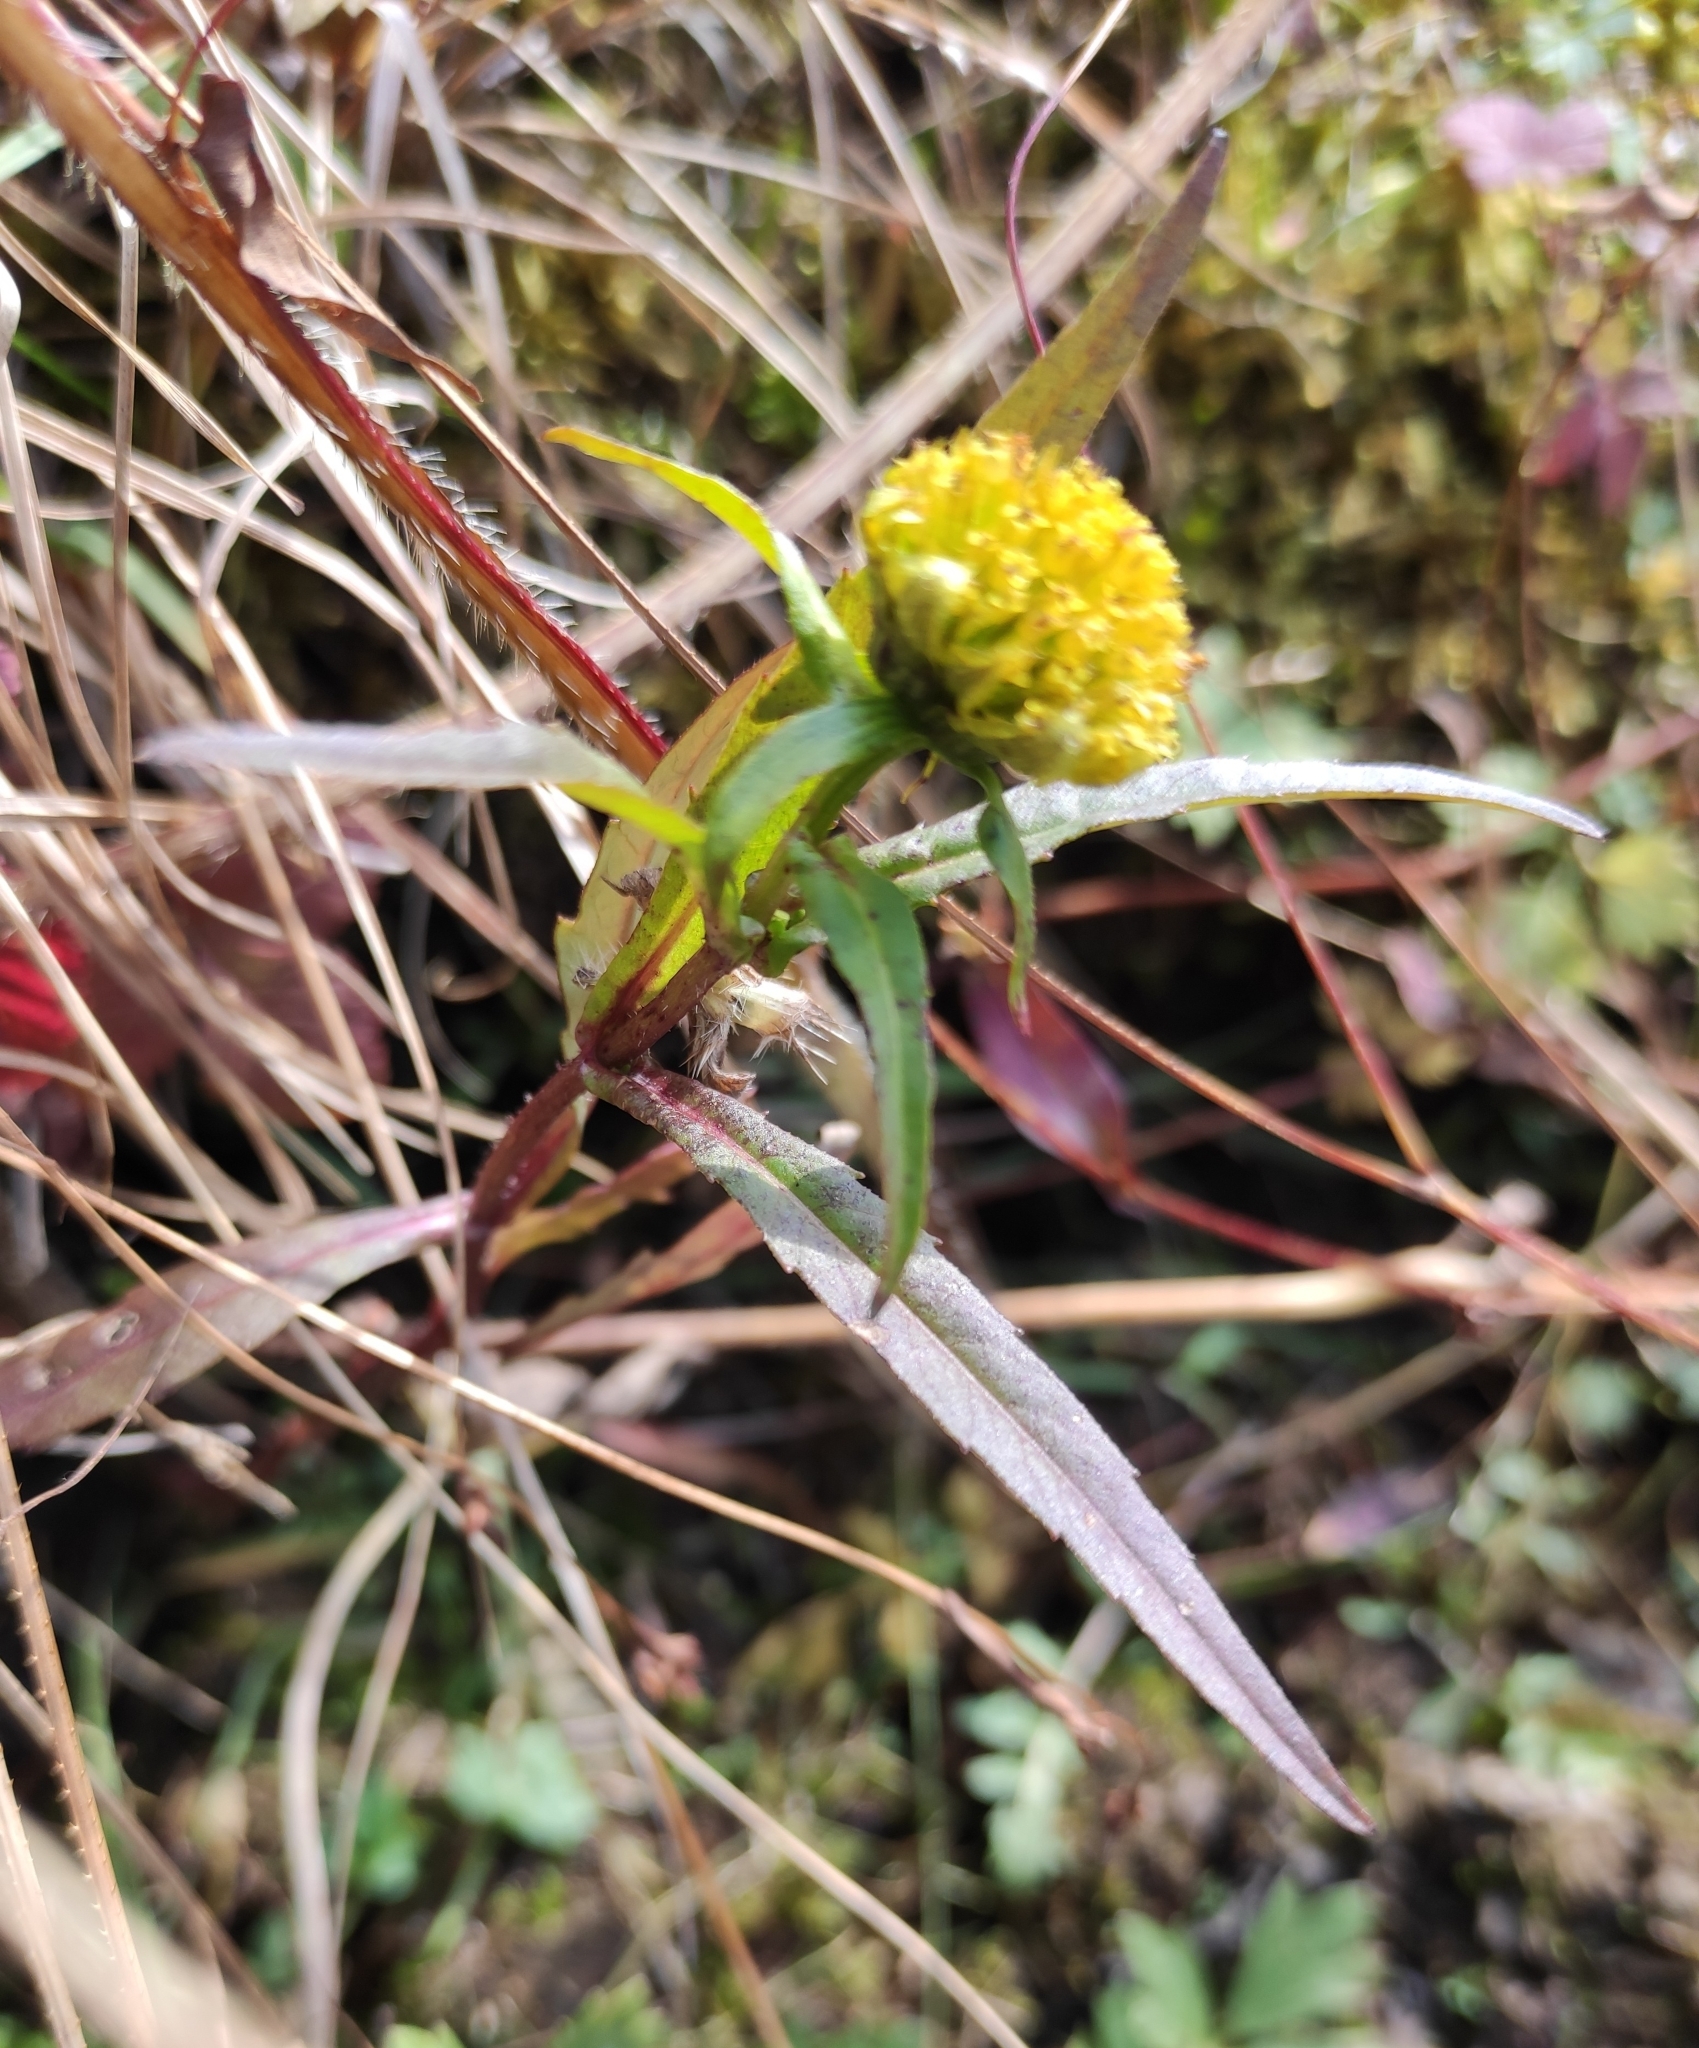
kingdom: Plantae
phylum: Tracheophyta
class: Magnoliopsida
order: Asterales
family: Asteraceae
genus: Bidens
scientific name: Bidens cernua
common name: Nodding bur-marigold
